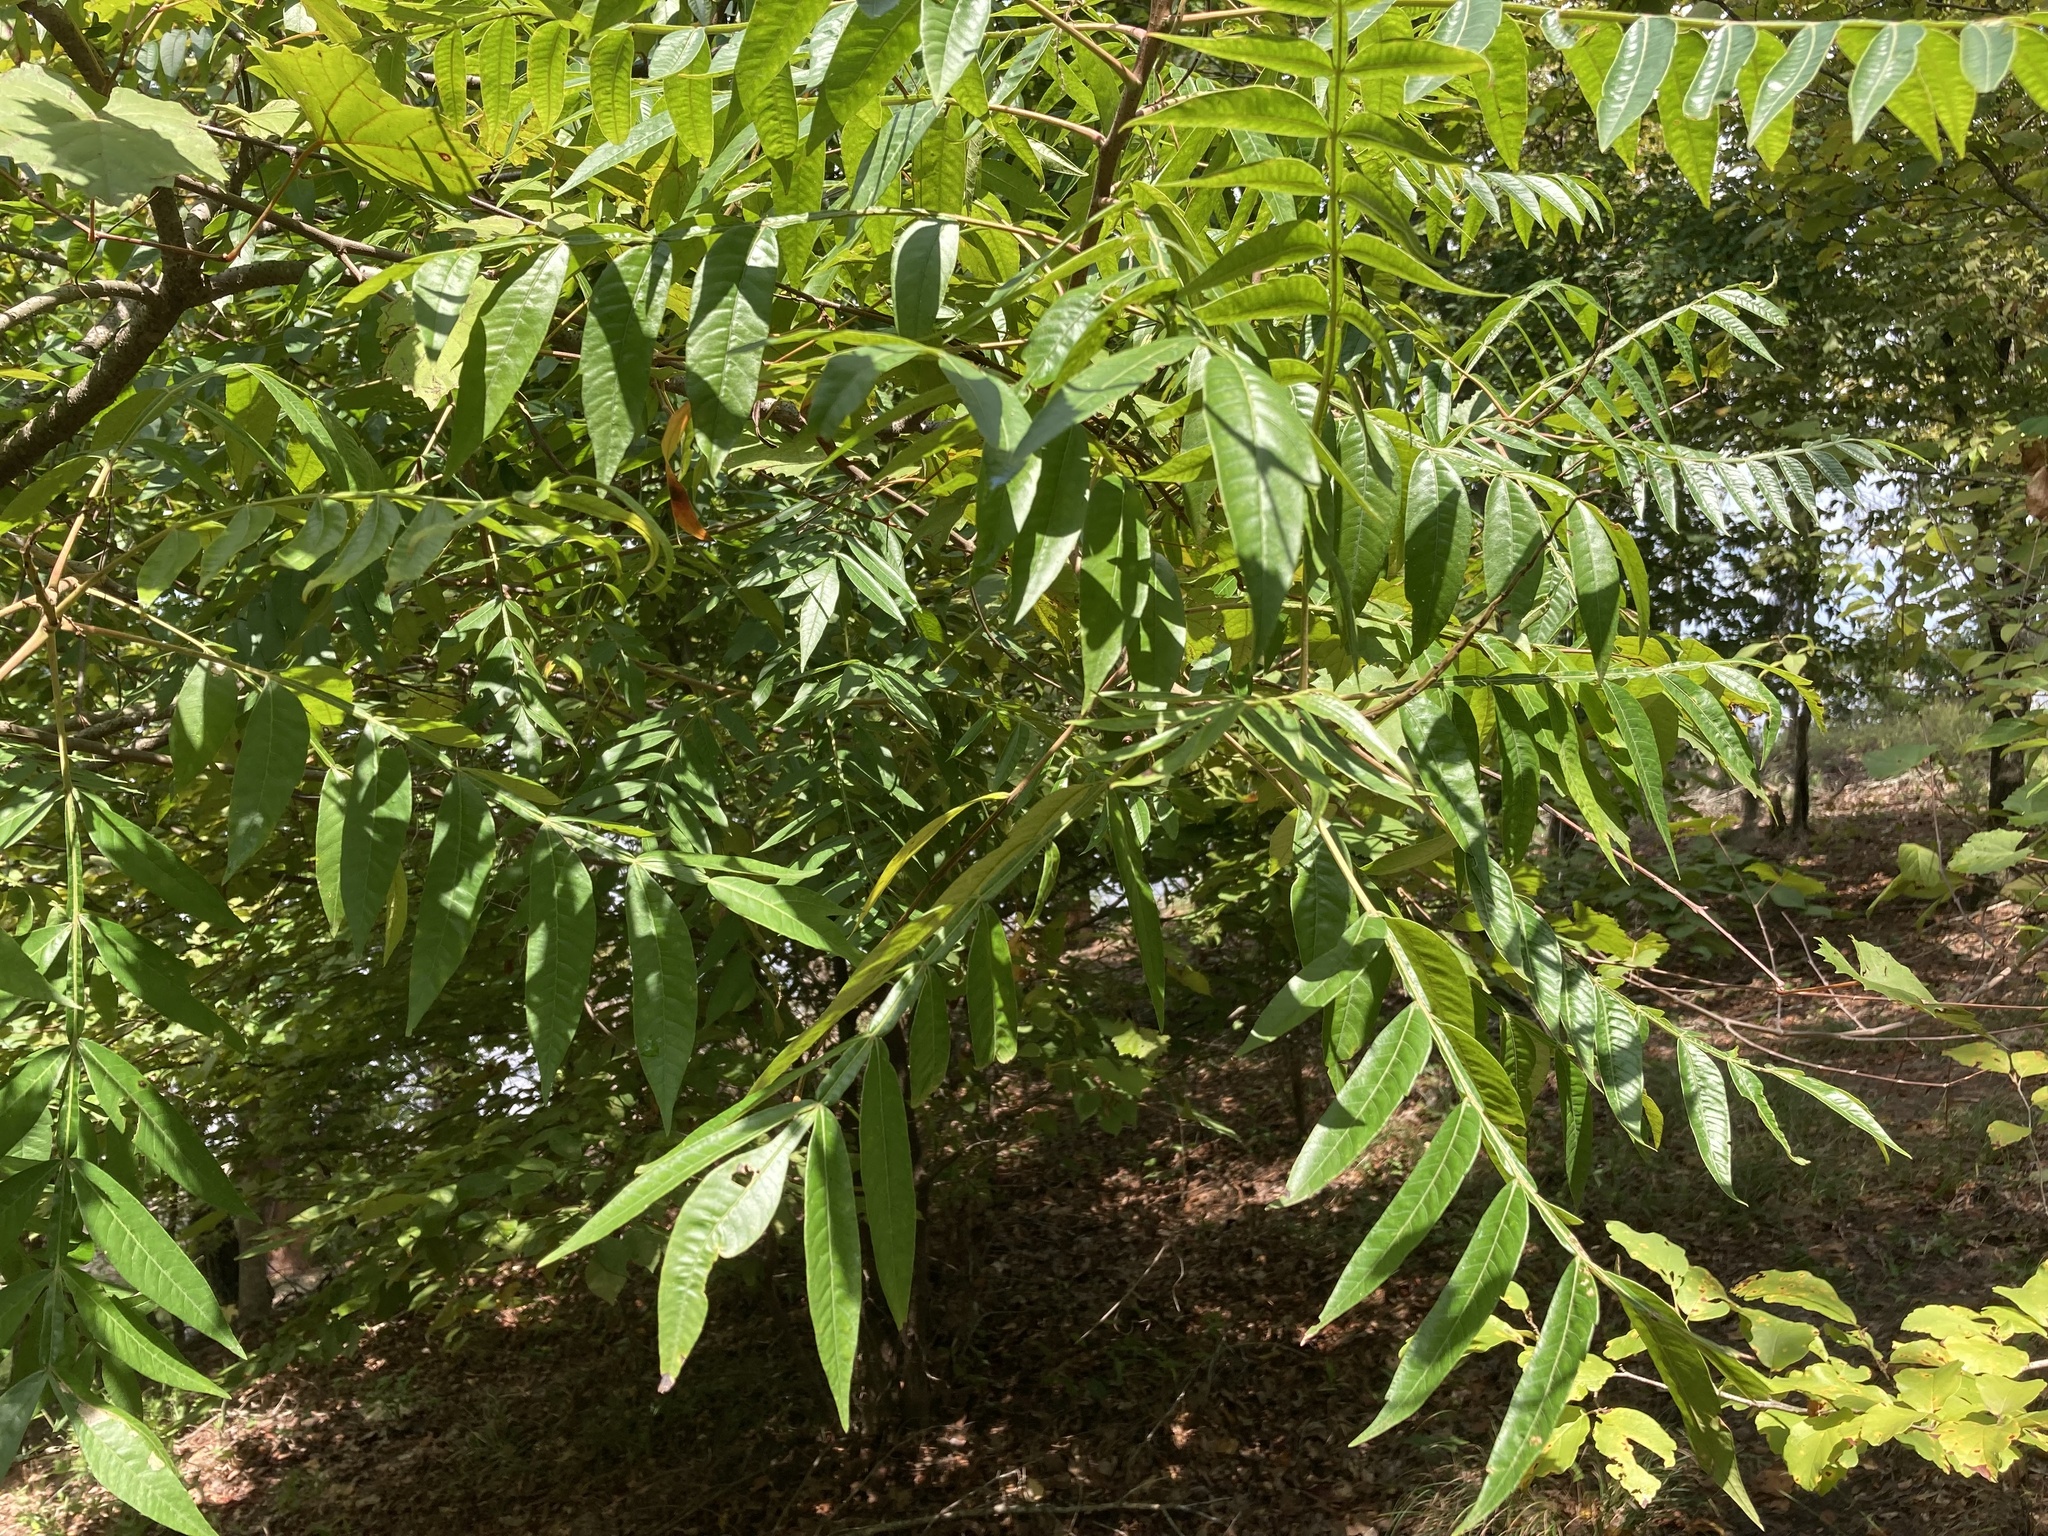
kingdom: Plantae
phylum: Tracheophyta
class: Magnoliopsida
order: Sapindales
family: Anacardiaceae
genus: Rhus
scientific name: Rhus copallina
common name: Shining sumac
